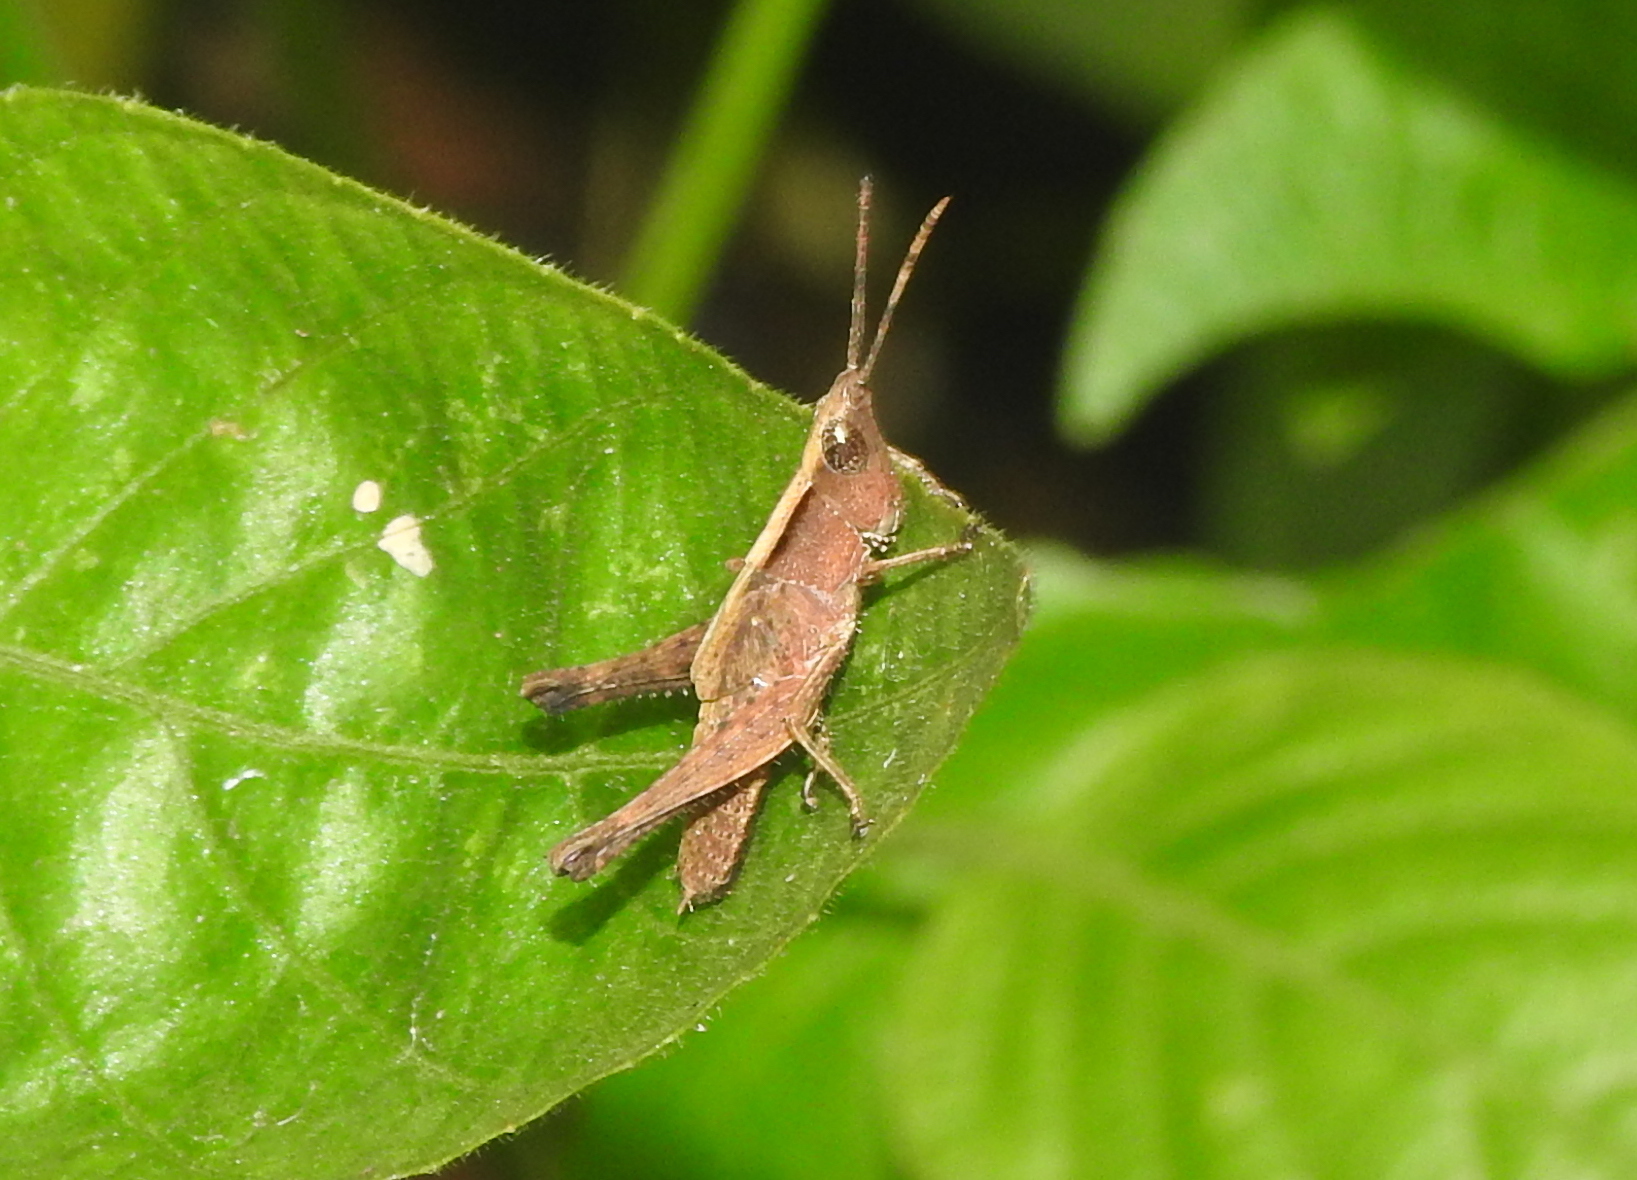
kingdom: Animalia
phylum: Arthropoda
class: Insecta
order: Orthoptera
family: Acrididae
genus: Phlaeoba
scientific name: Phlaeoba antennata
